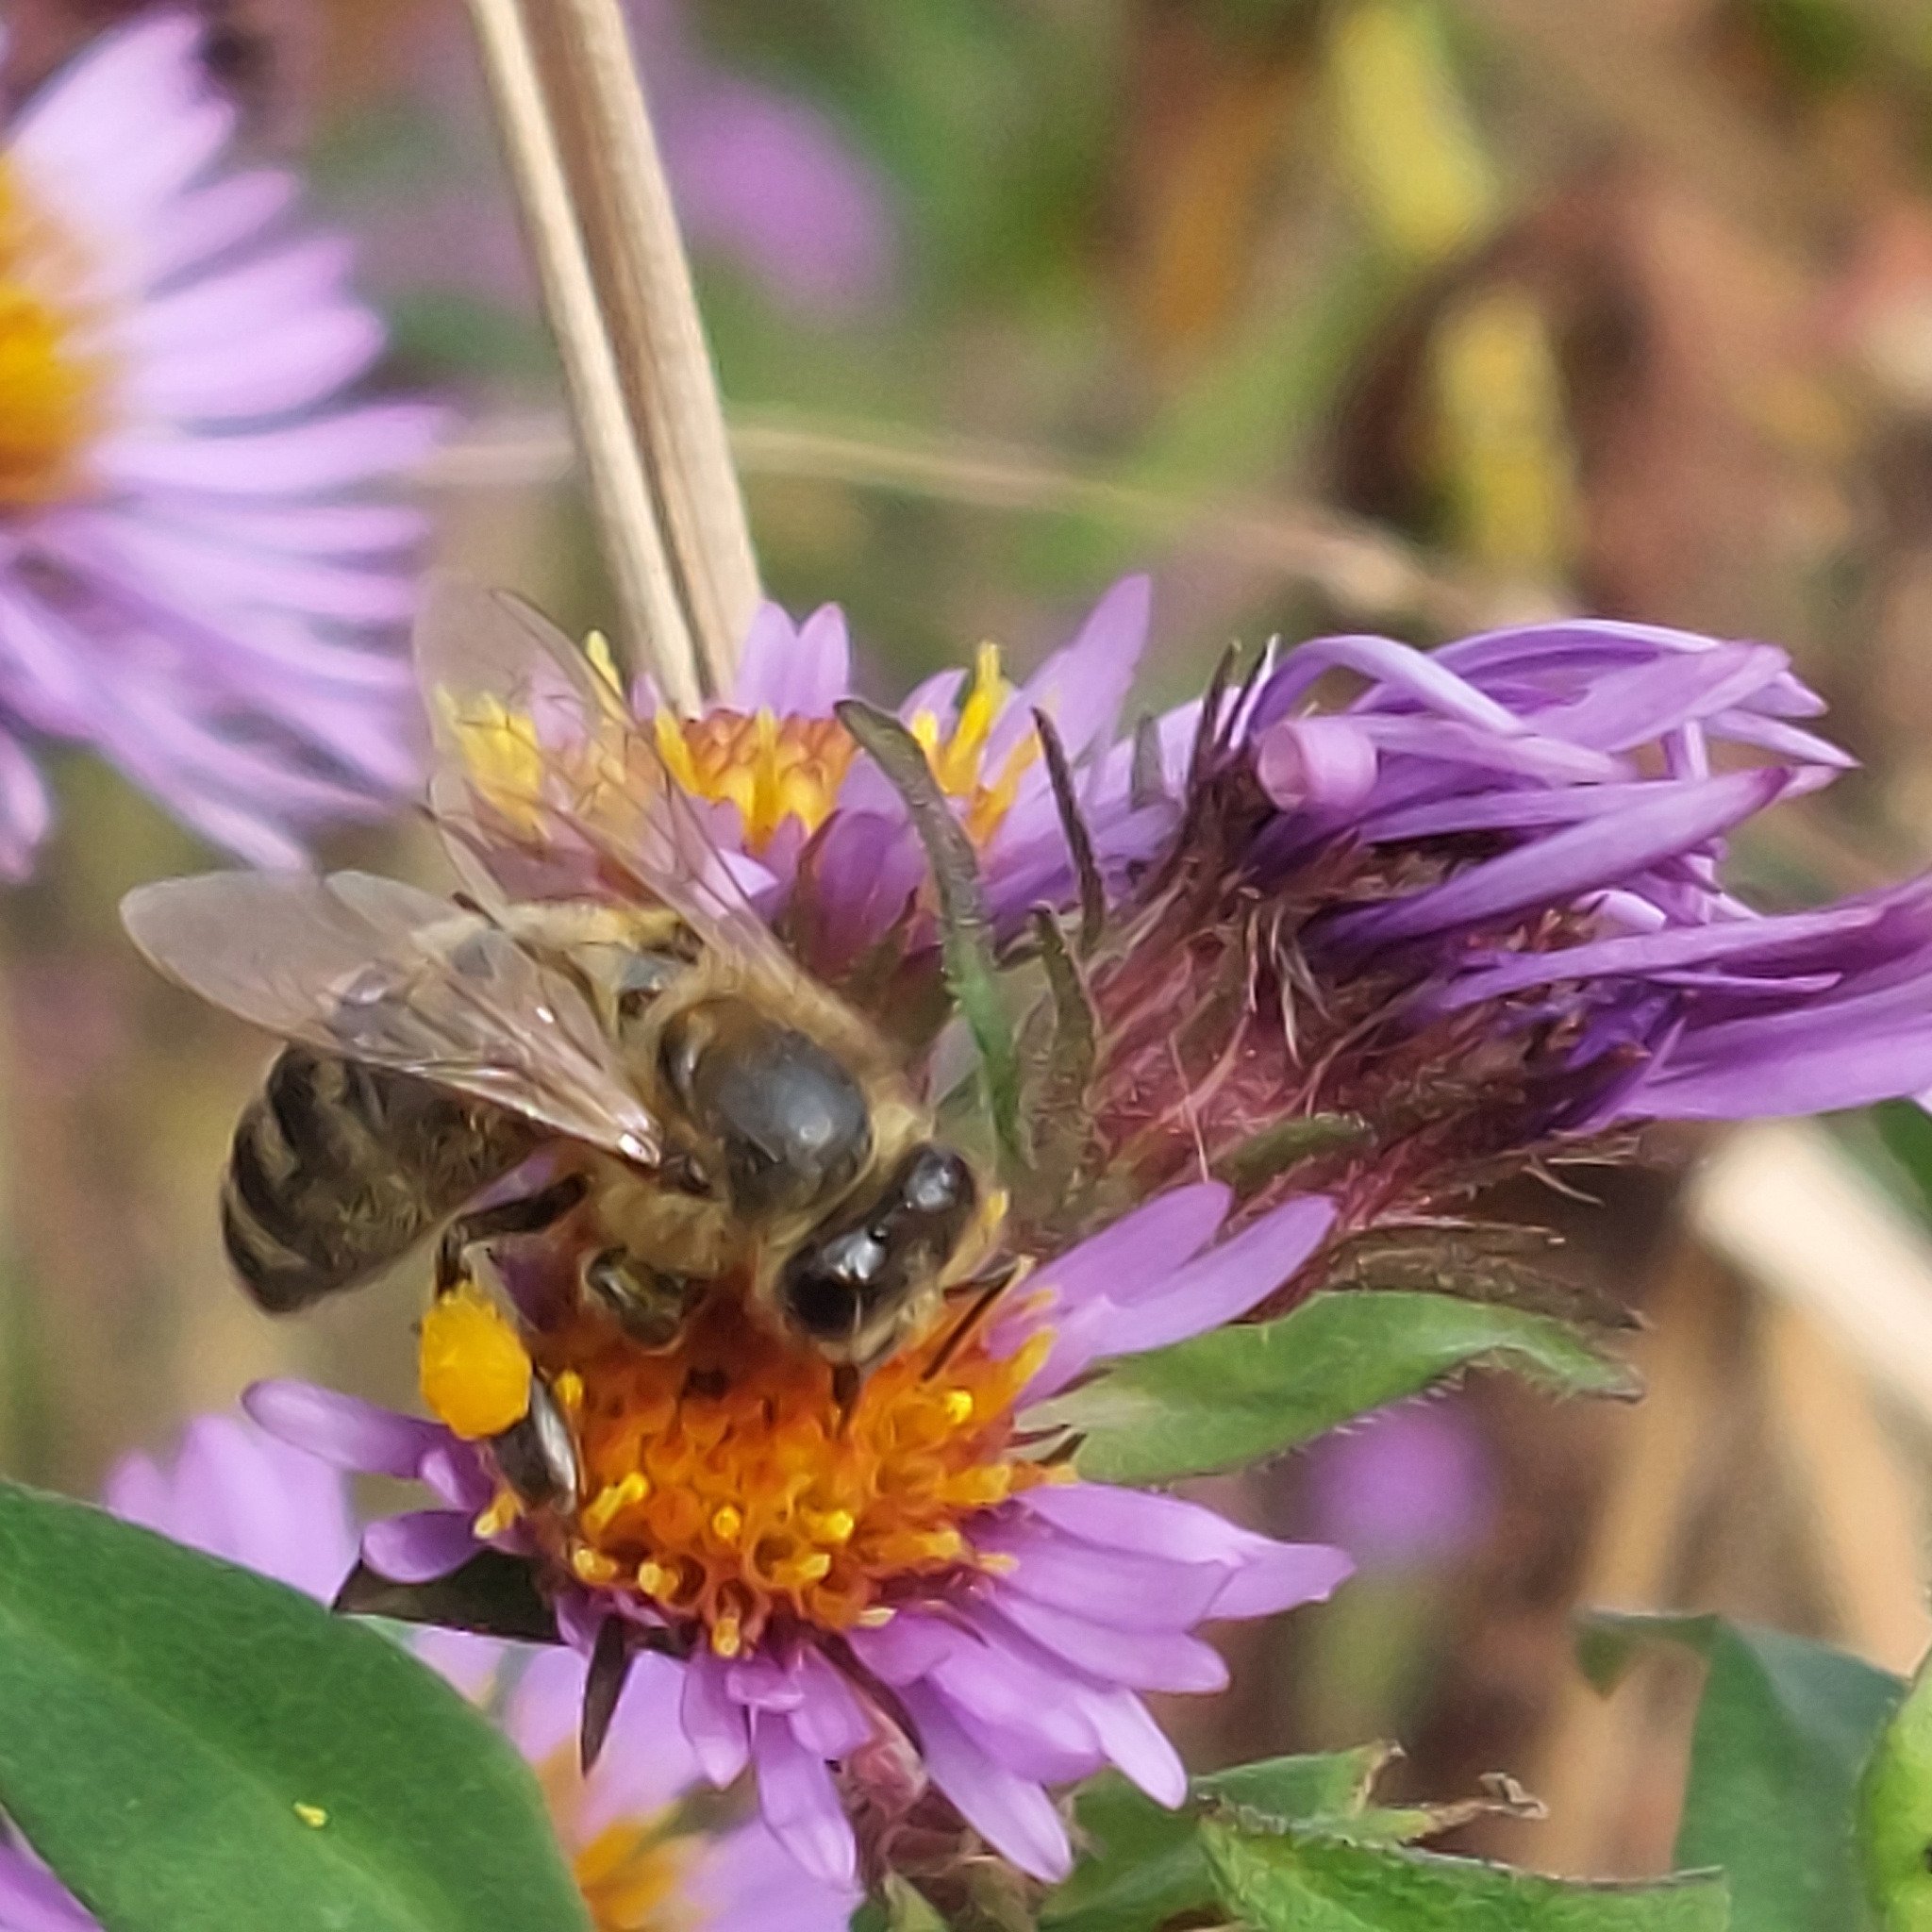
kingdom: Animalia
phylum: Arthropoda
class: Insecta
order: Hymenoptera
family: Apidae
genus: Apis
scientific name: Apis mellifera
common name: Honey bee
